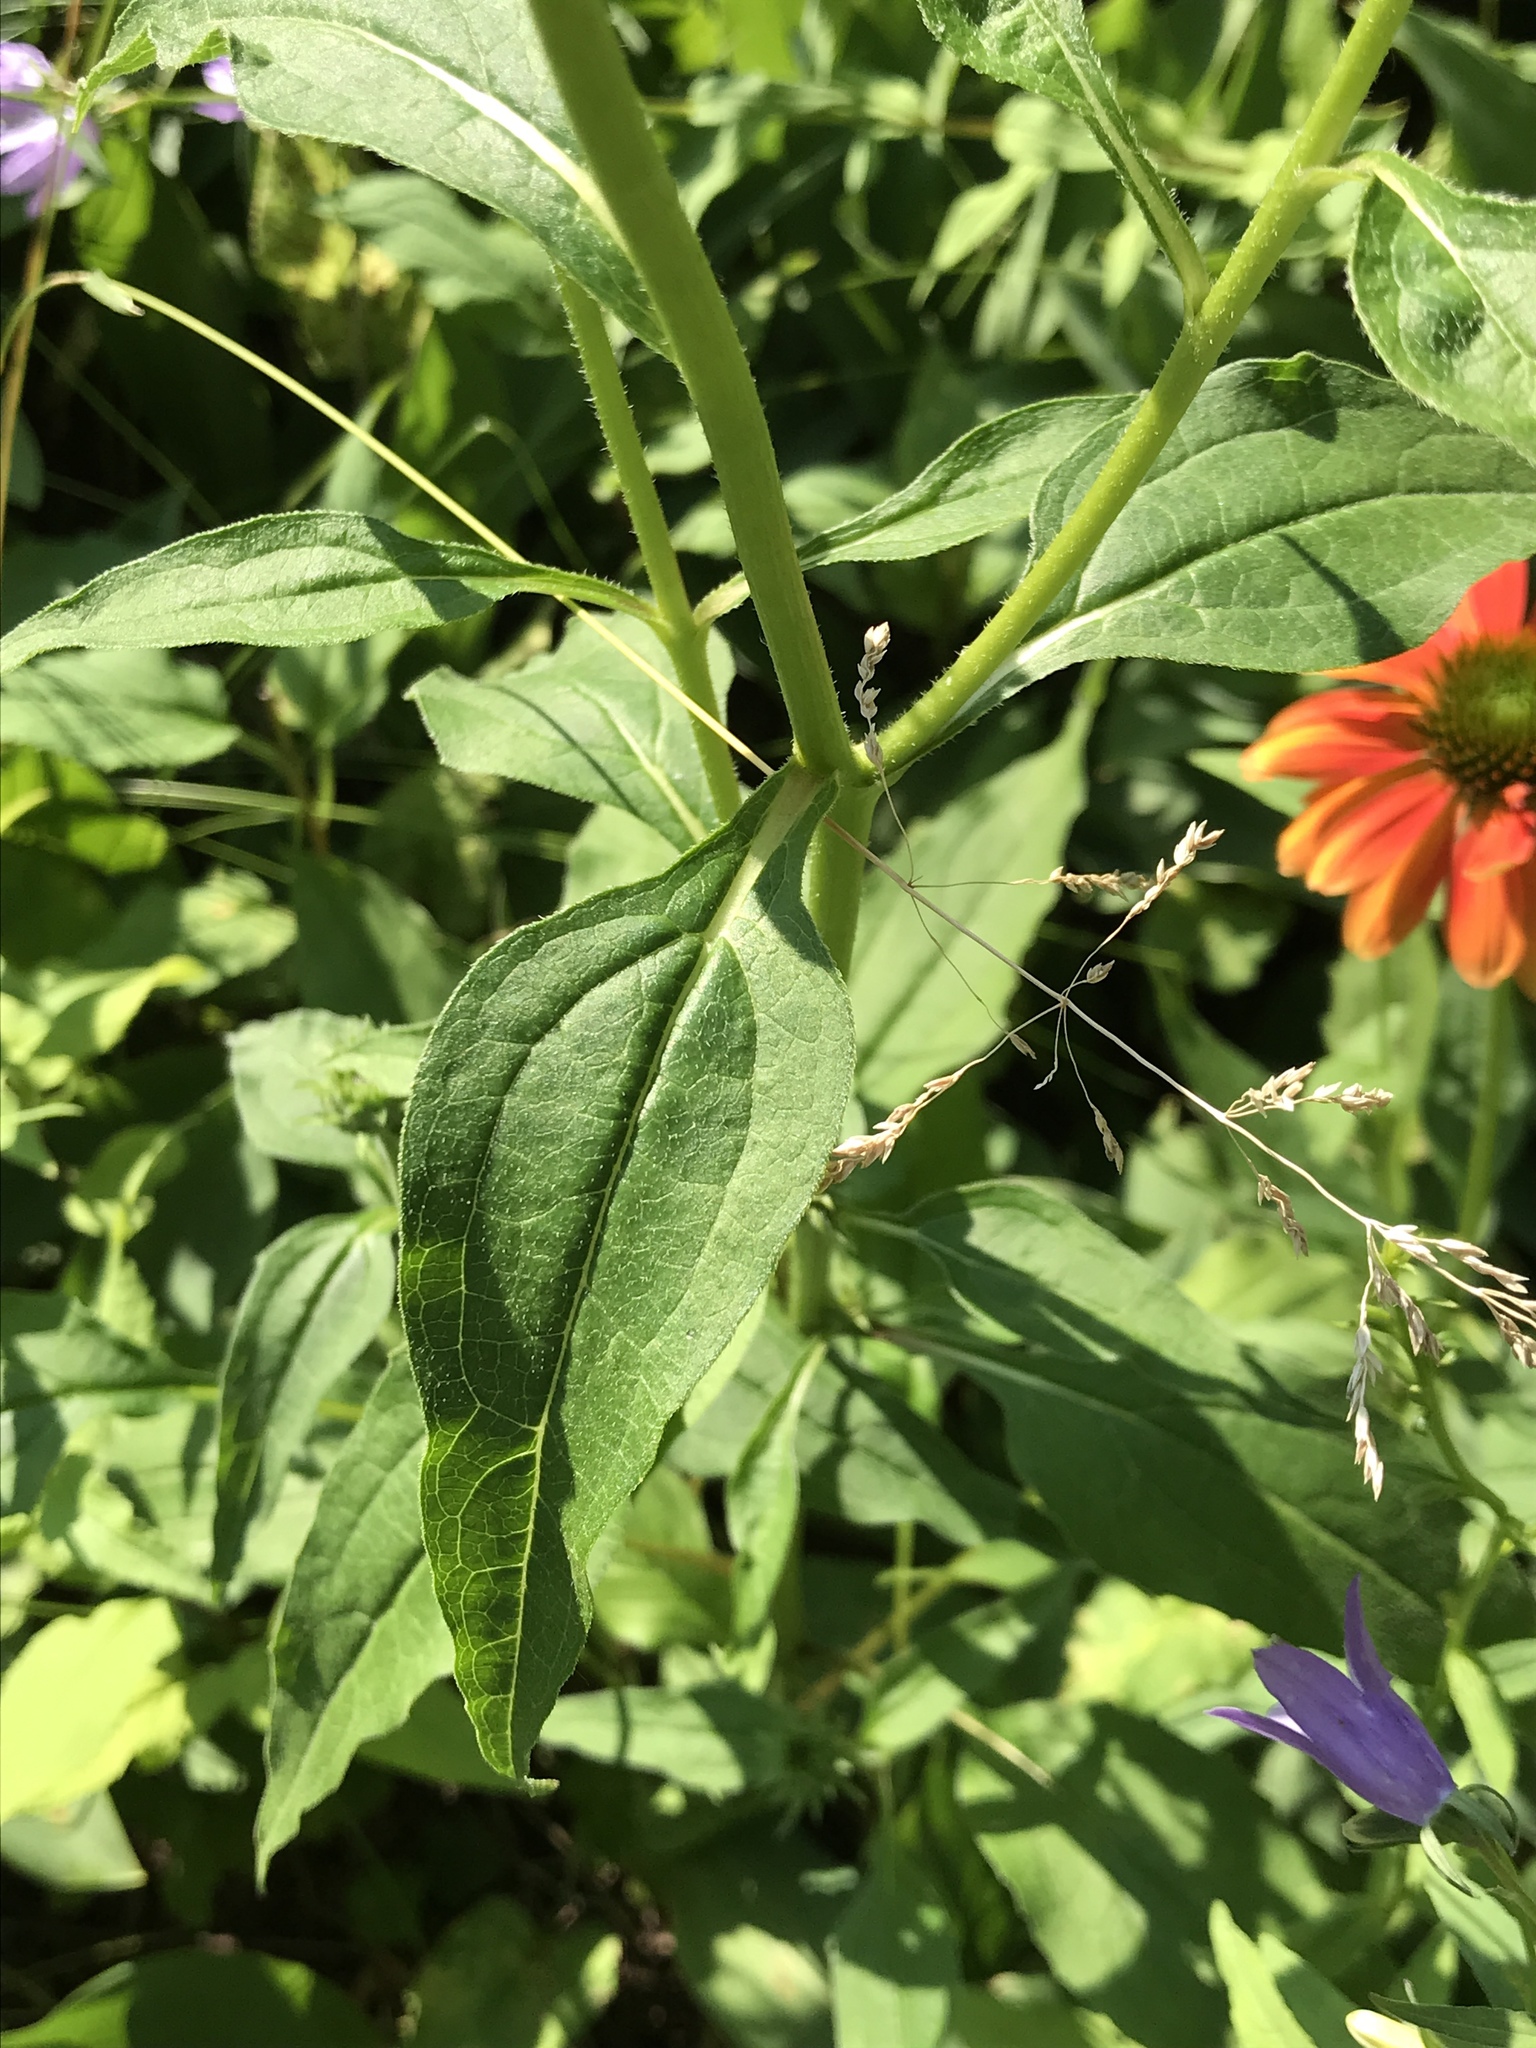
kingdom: Plantae
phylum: Tracheophyta
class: Magnoliopsida
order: Asterales
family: Asteraceae
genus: Echinacea
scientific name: Echinacea purpurea
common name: Broad-leaved purple coneflower
